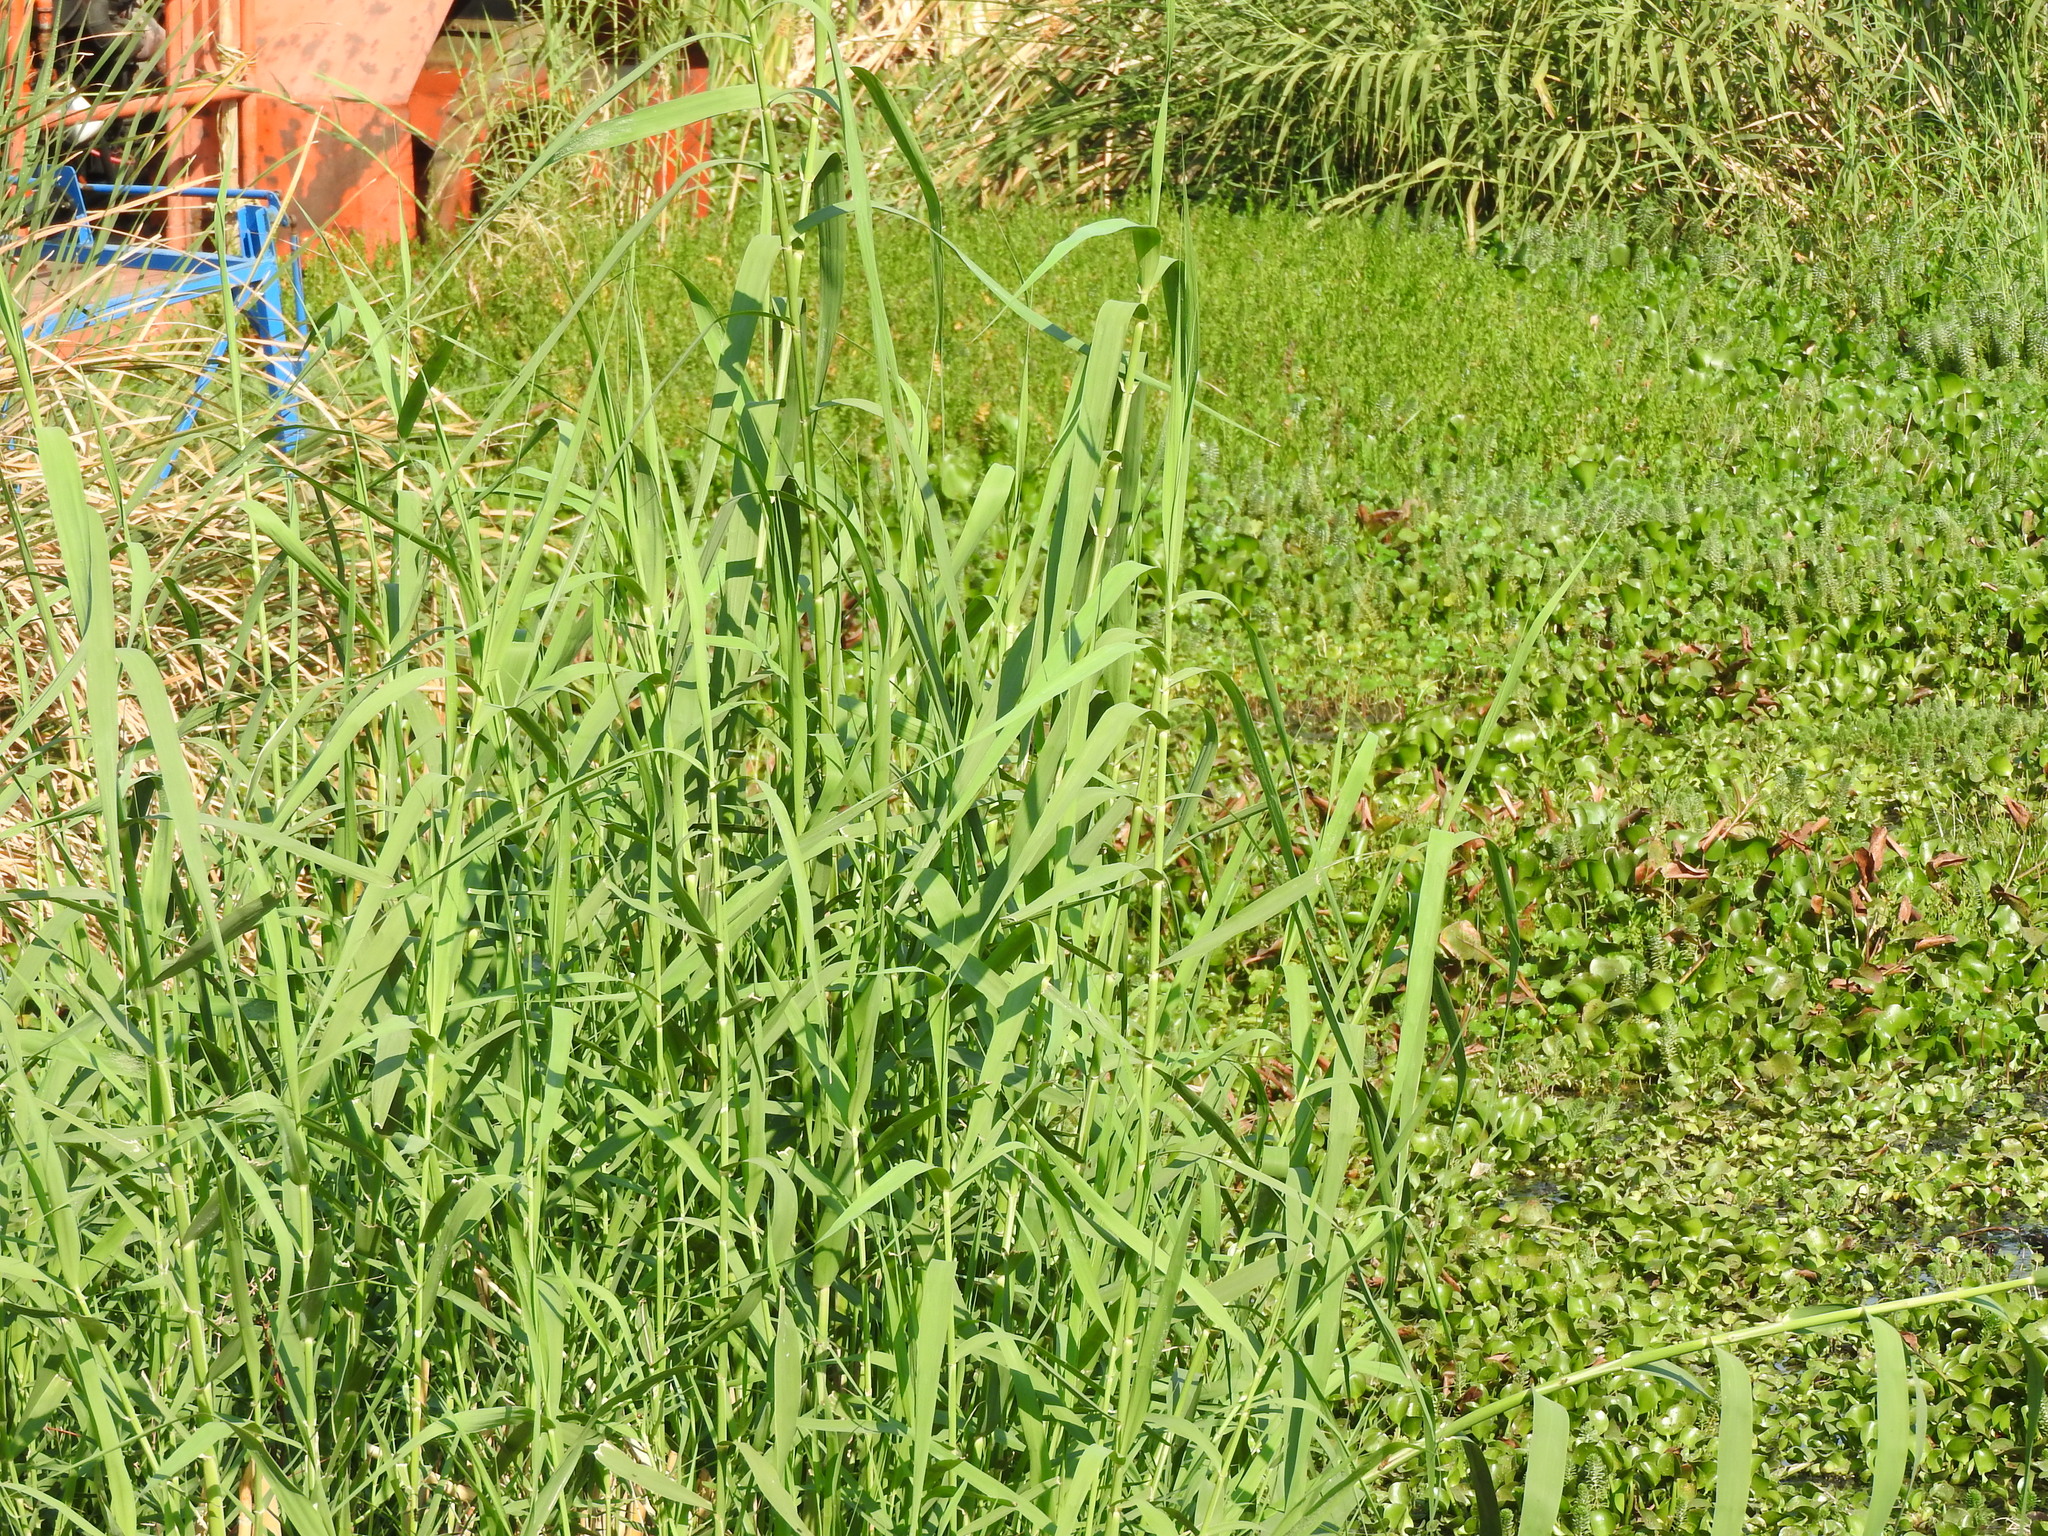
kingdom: Plantae
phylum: Tracheophyta
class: Liliopsida
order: Poales
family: Poaceae
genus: Arundo
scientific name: Arundo donax
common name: Giant reed
